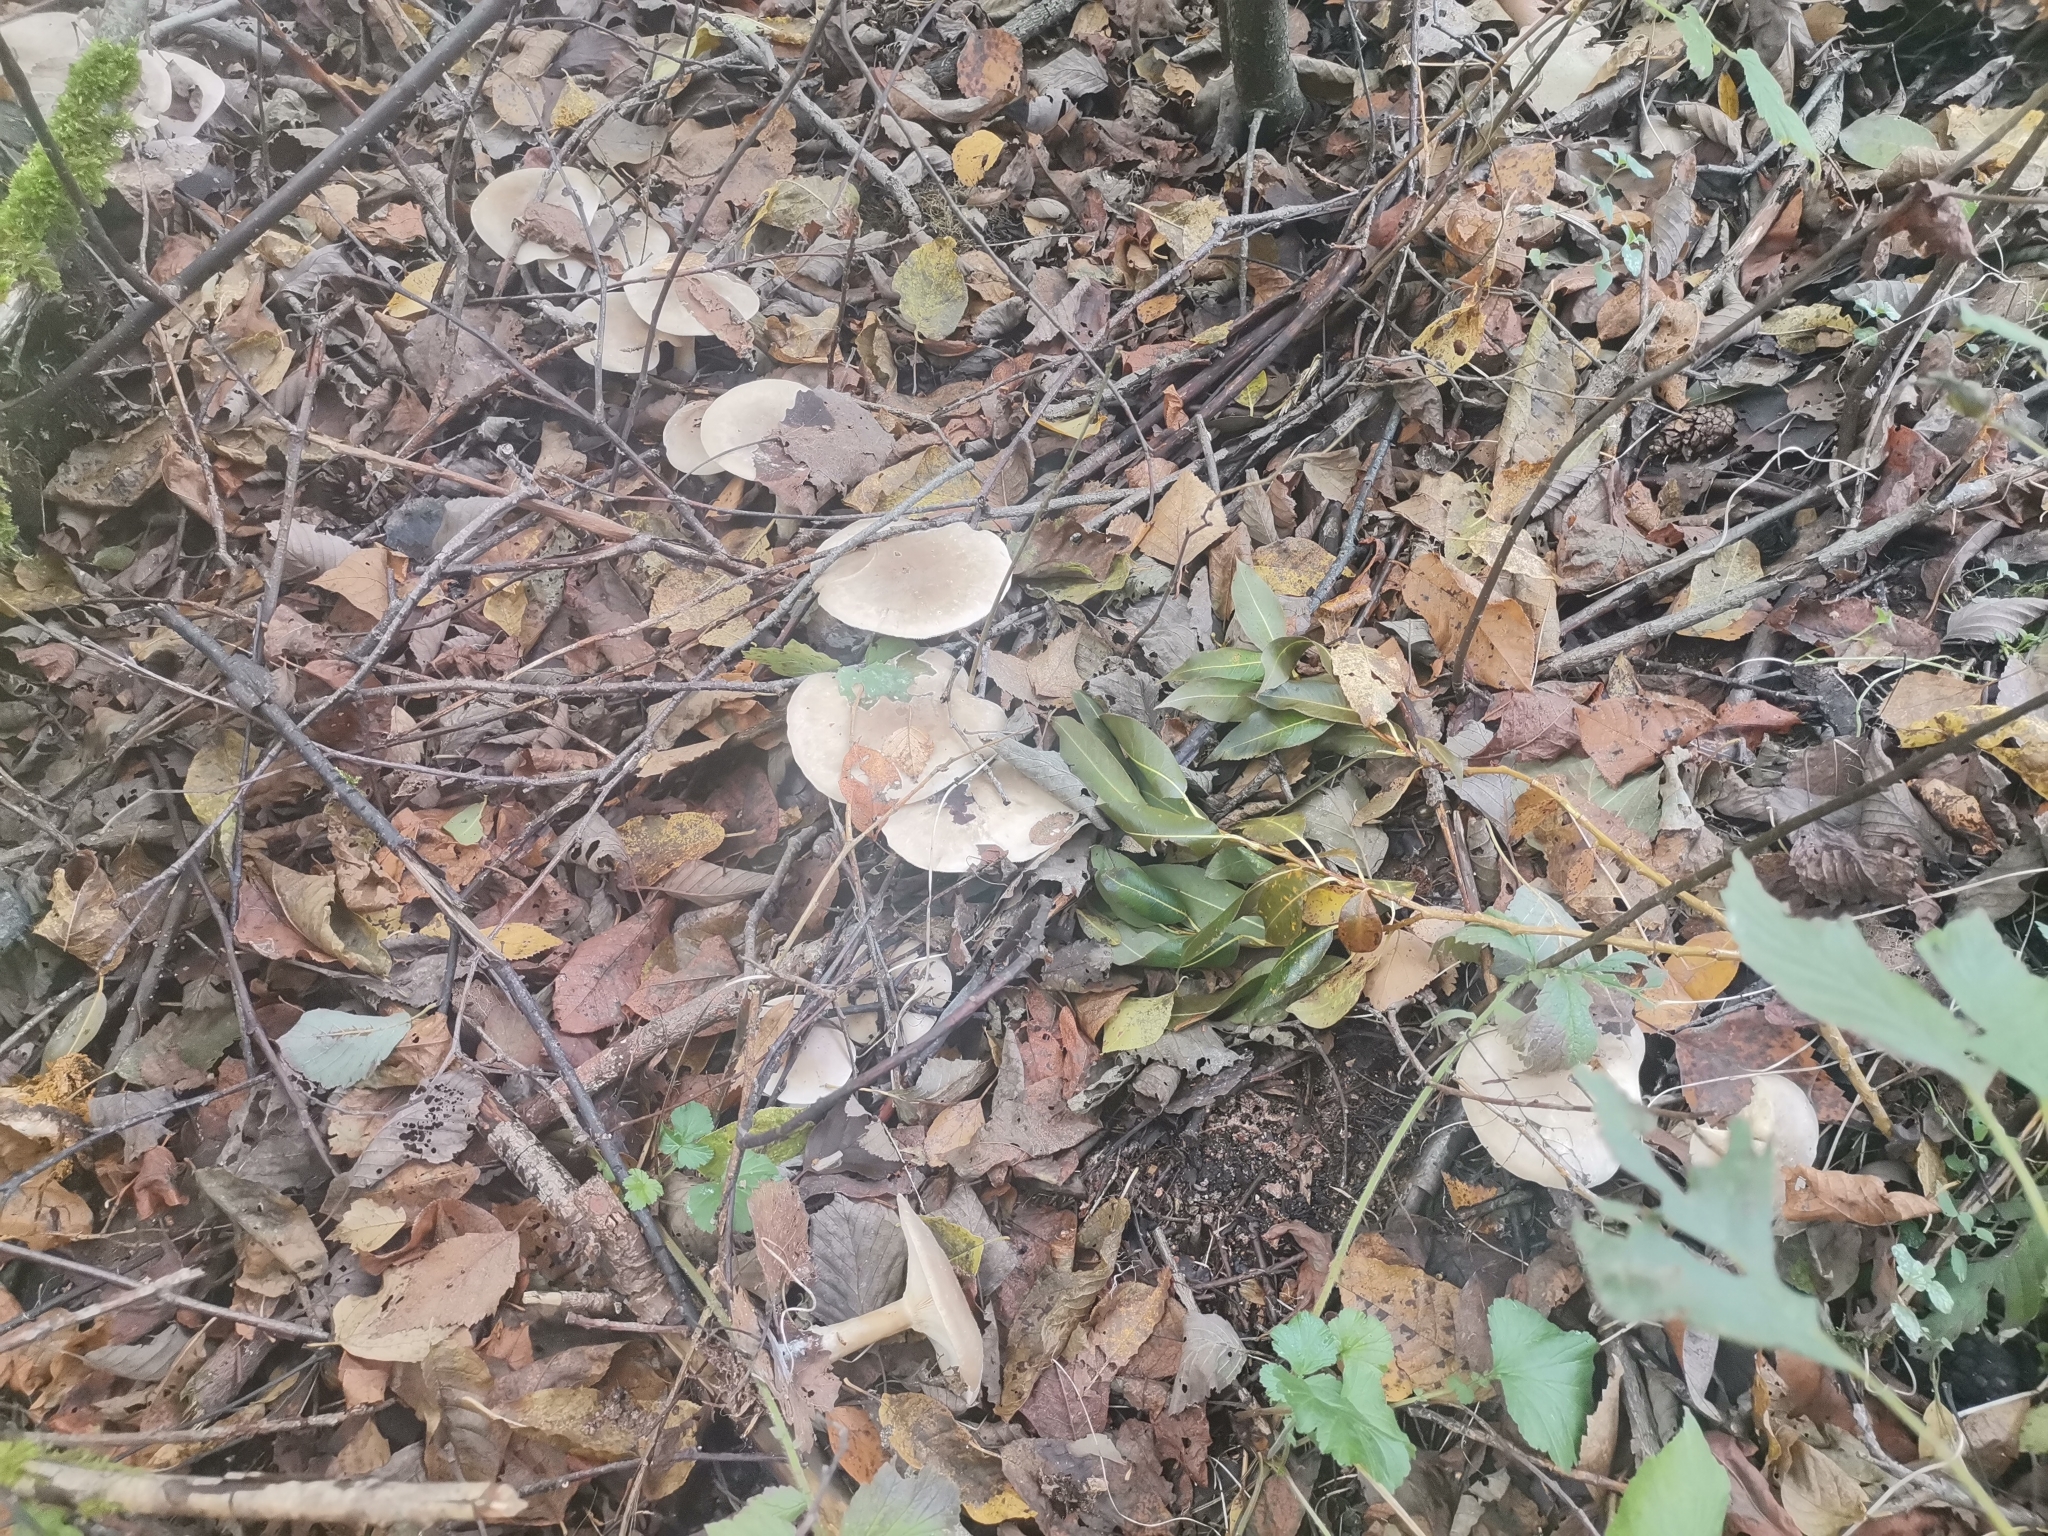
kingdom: Fungi
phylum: Basidiomycota
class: Agaricomycetes
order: Agaricales
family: Tricholomataceae
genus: Clitocybe
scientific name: Clitocybe nebularis
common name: Clouded agaric
